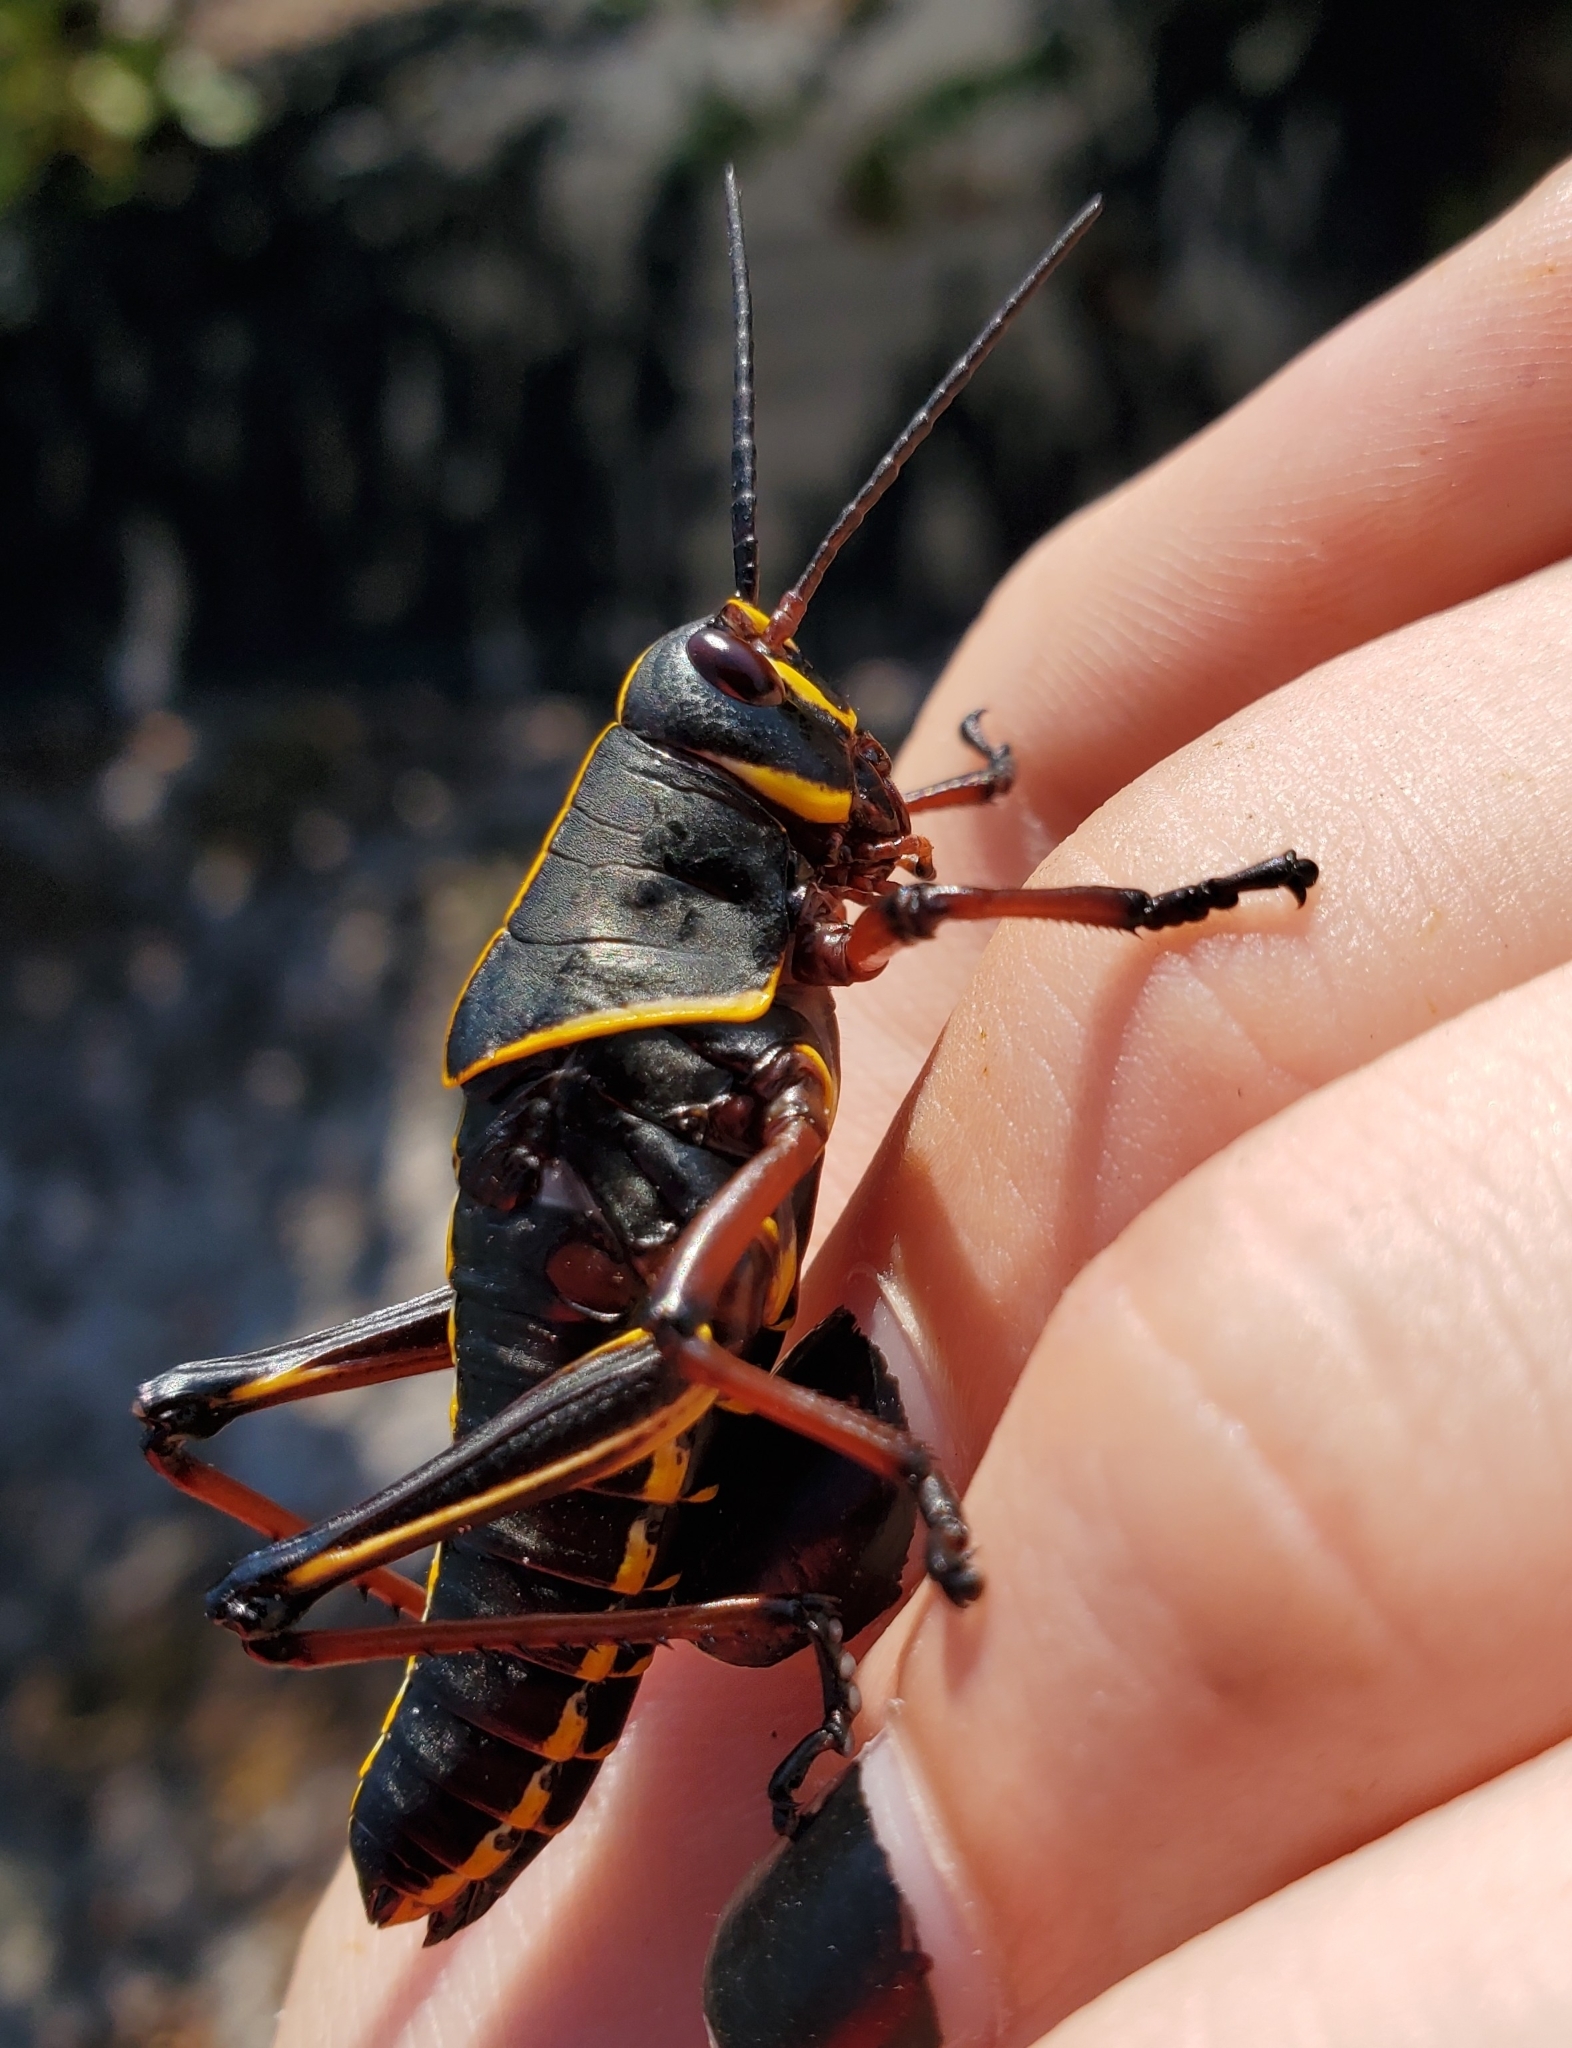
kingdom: Animalia
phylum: Arthropoda
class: Insecta
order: Orthoptera
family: Romaleidae
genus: Romalea
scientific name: Romalea microptera
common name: Eastern lubber grasshopper
